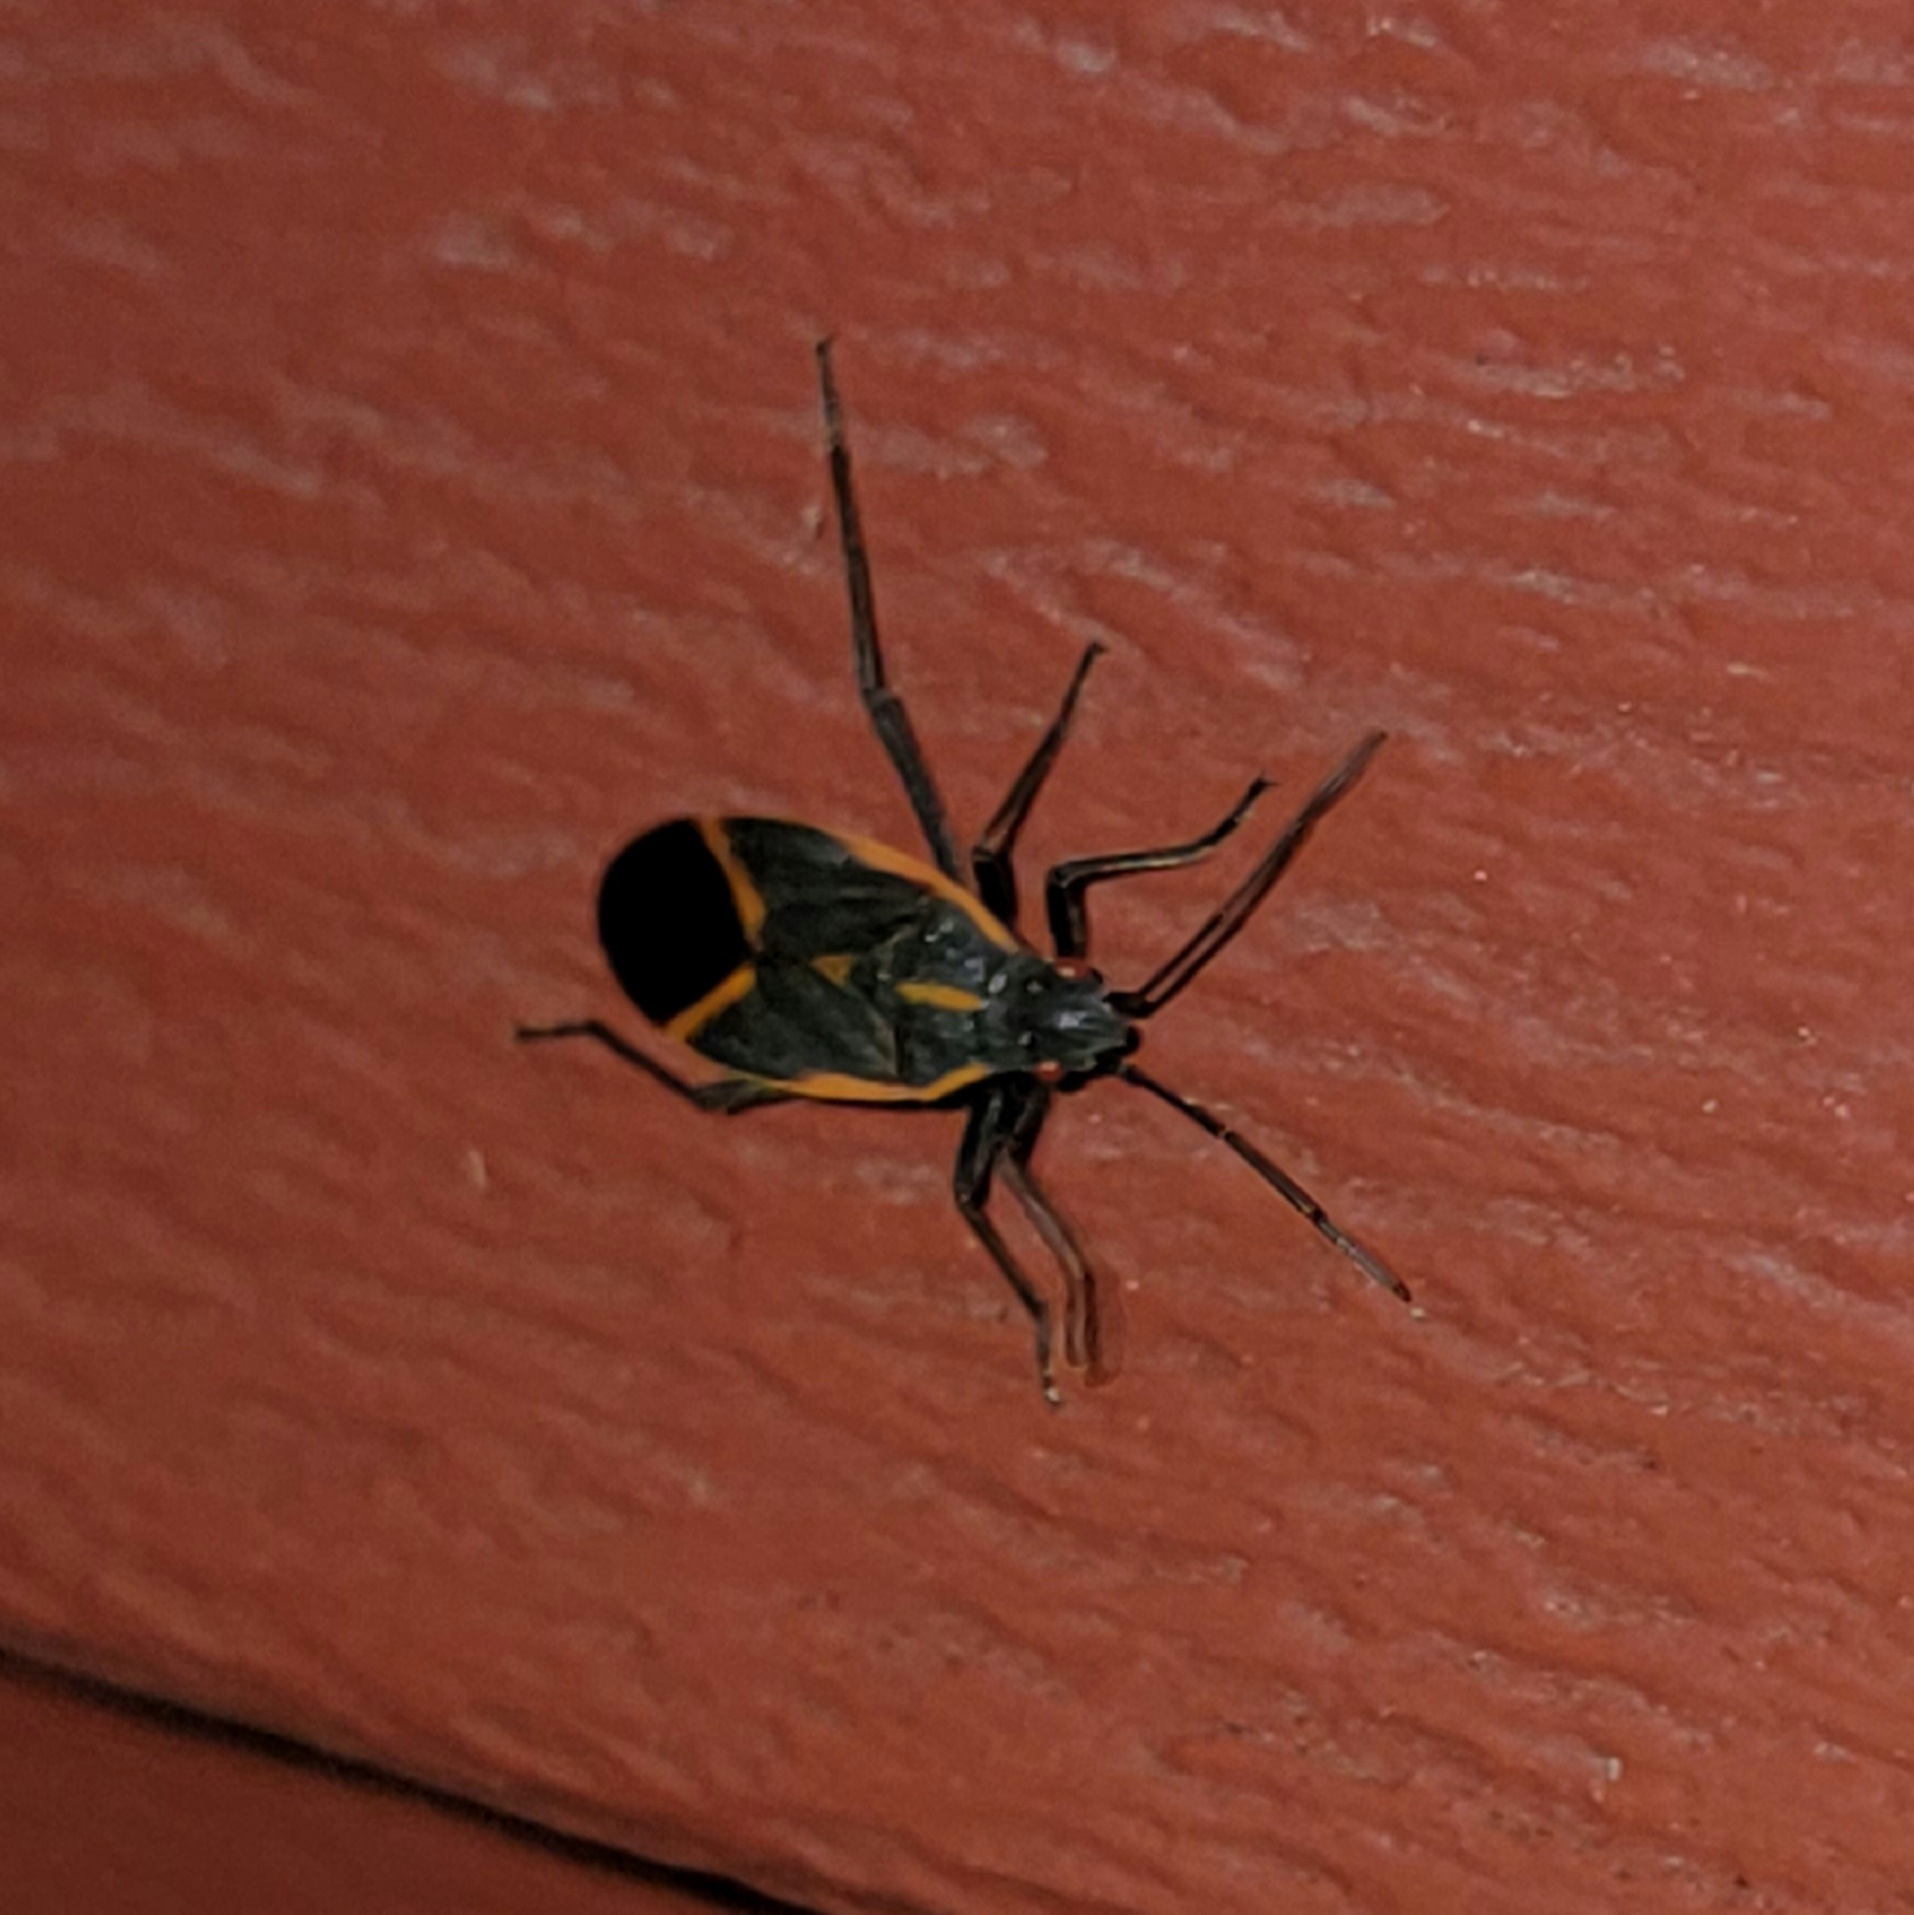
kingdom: Animalia
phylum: Arthropoda
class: Insecta
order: Hemiptera
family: Rhopalidae
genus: Boisea
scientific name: Boisea trivittata
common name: Boxelder bug
